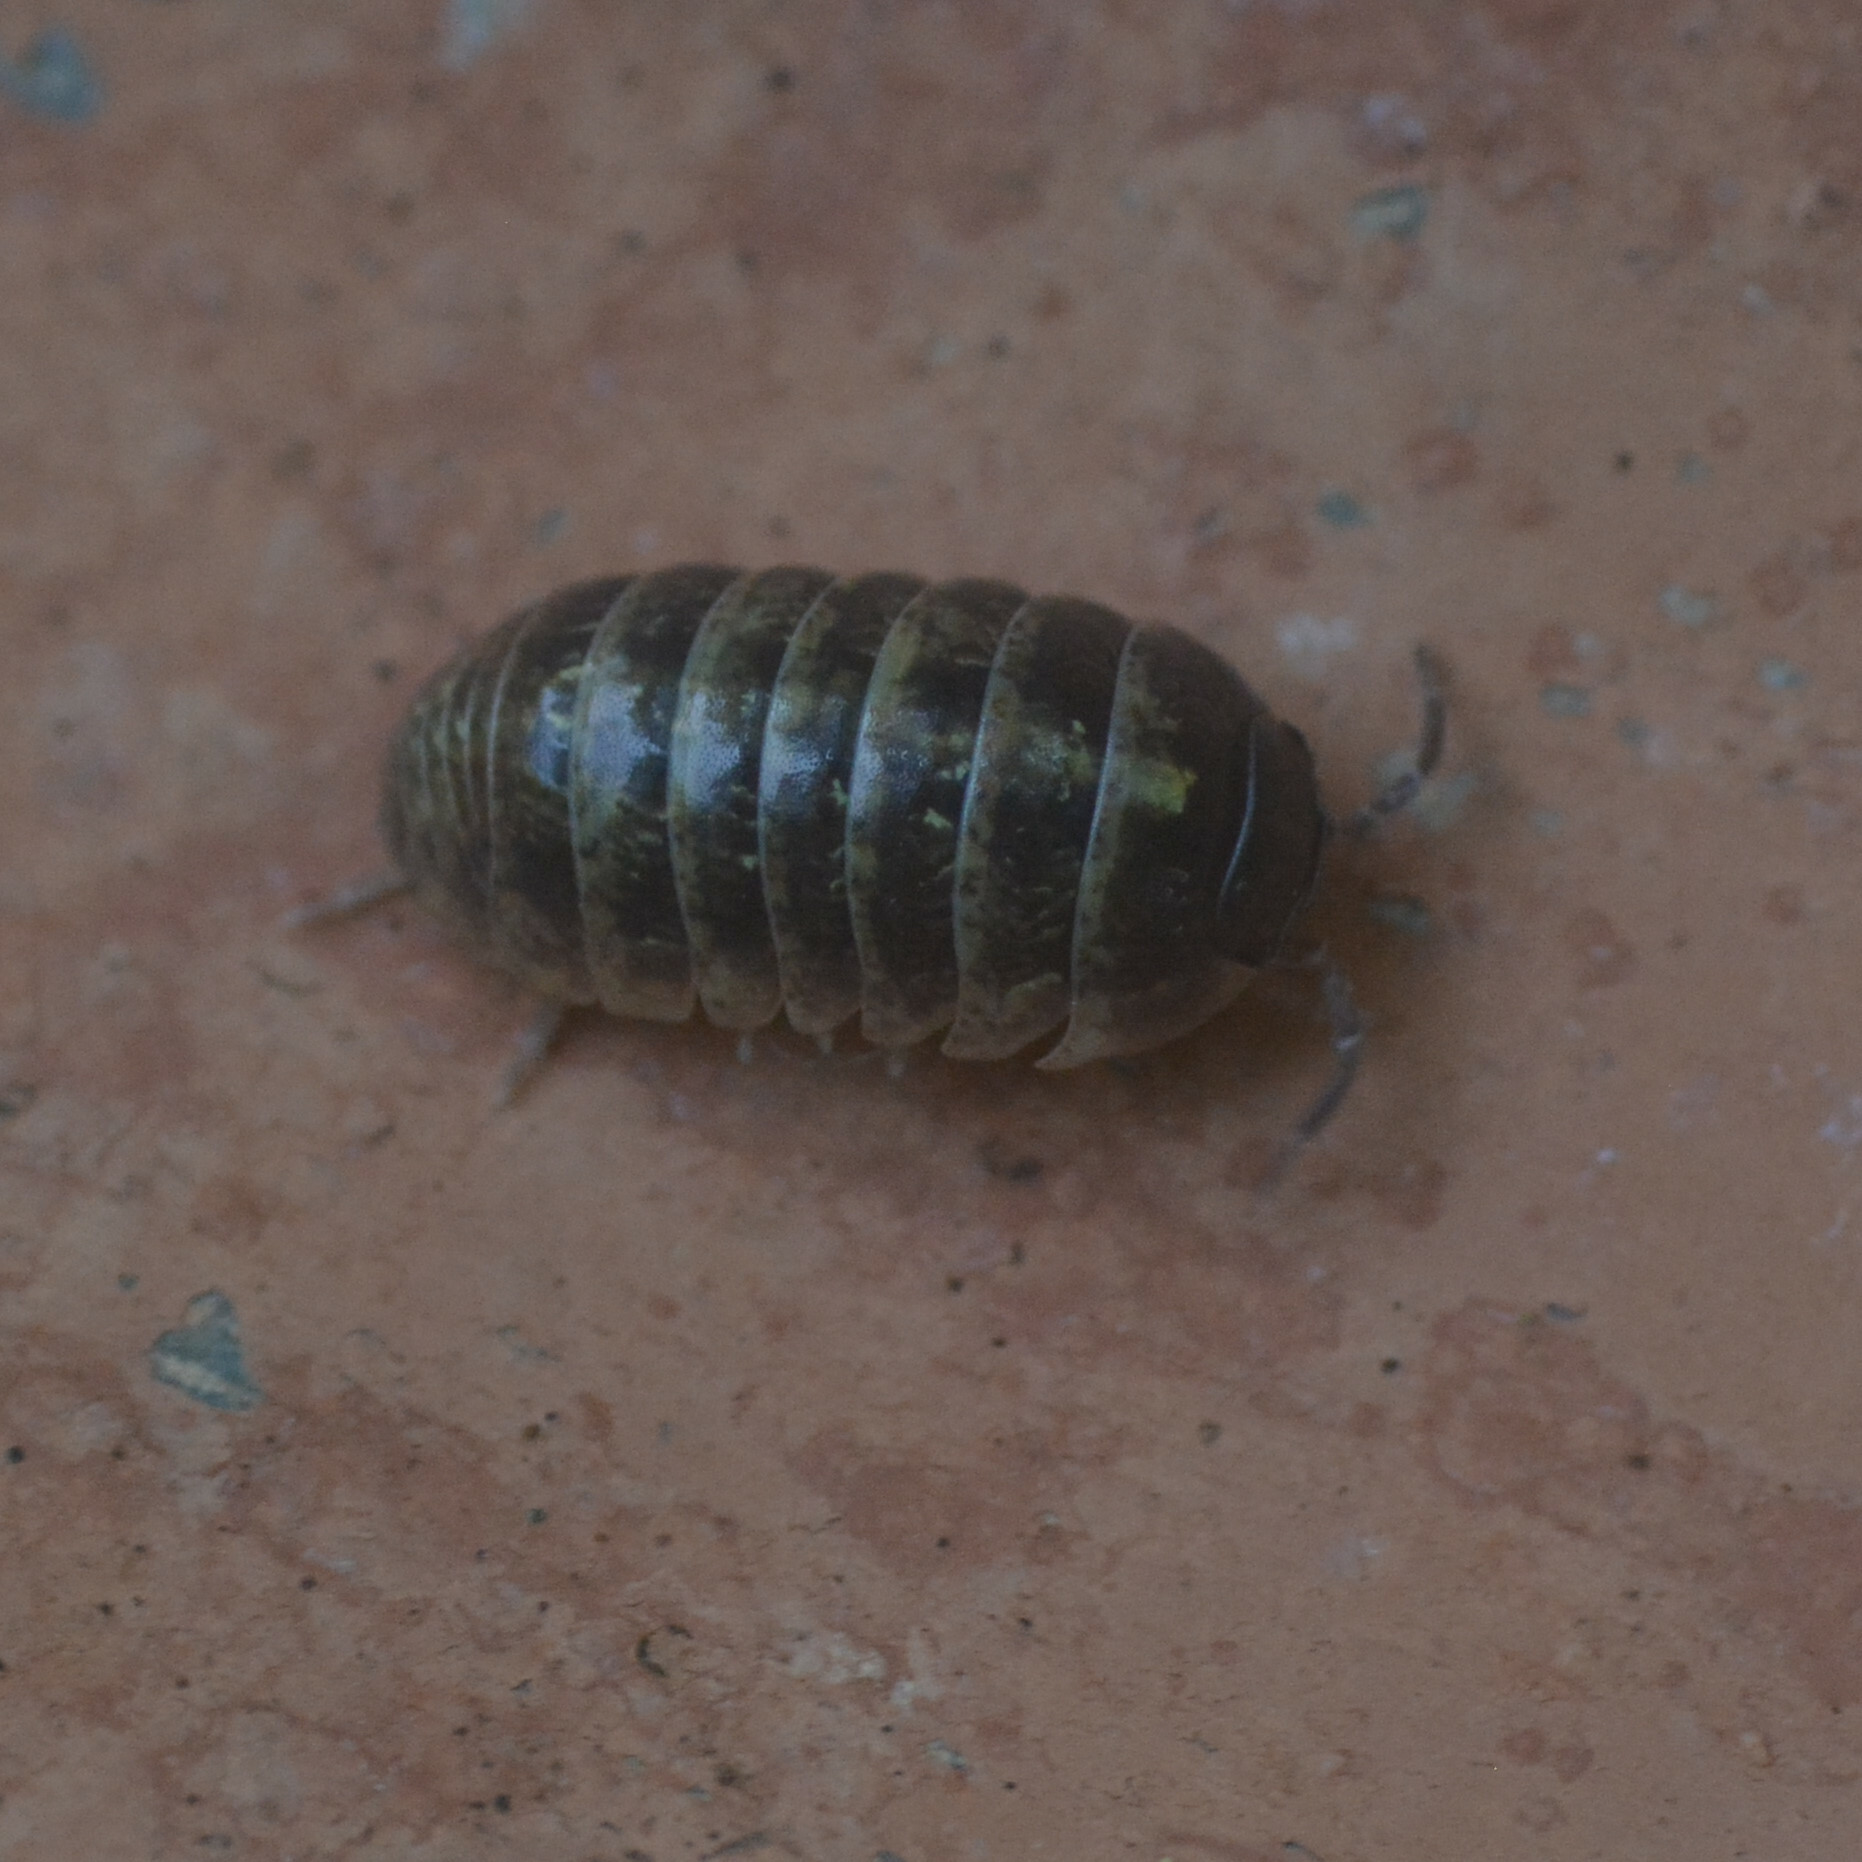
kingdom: Animalia
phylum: Arthropoda
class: Malacostraca
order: Isopoda
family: Armadillidiidae
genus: Armadillidium
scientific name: Armadillidium vulgare
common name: Common pill woodlouse
